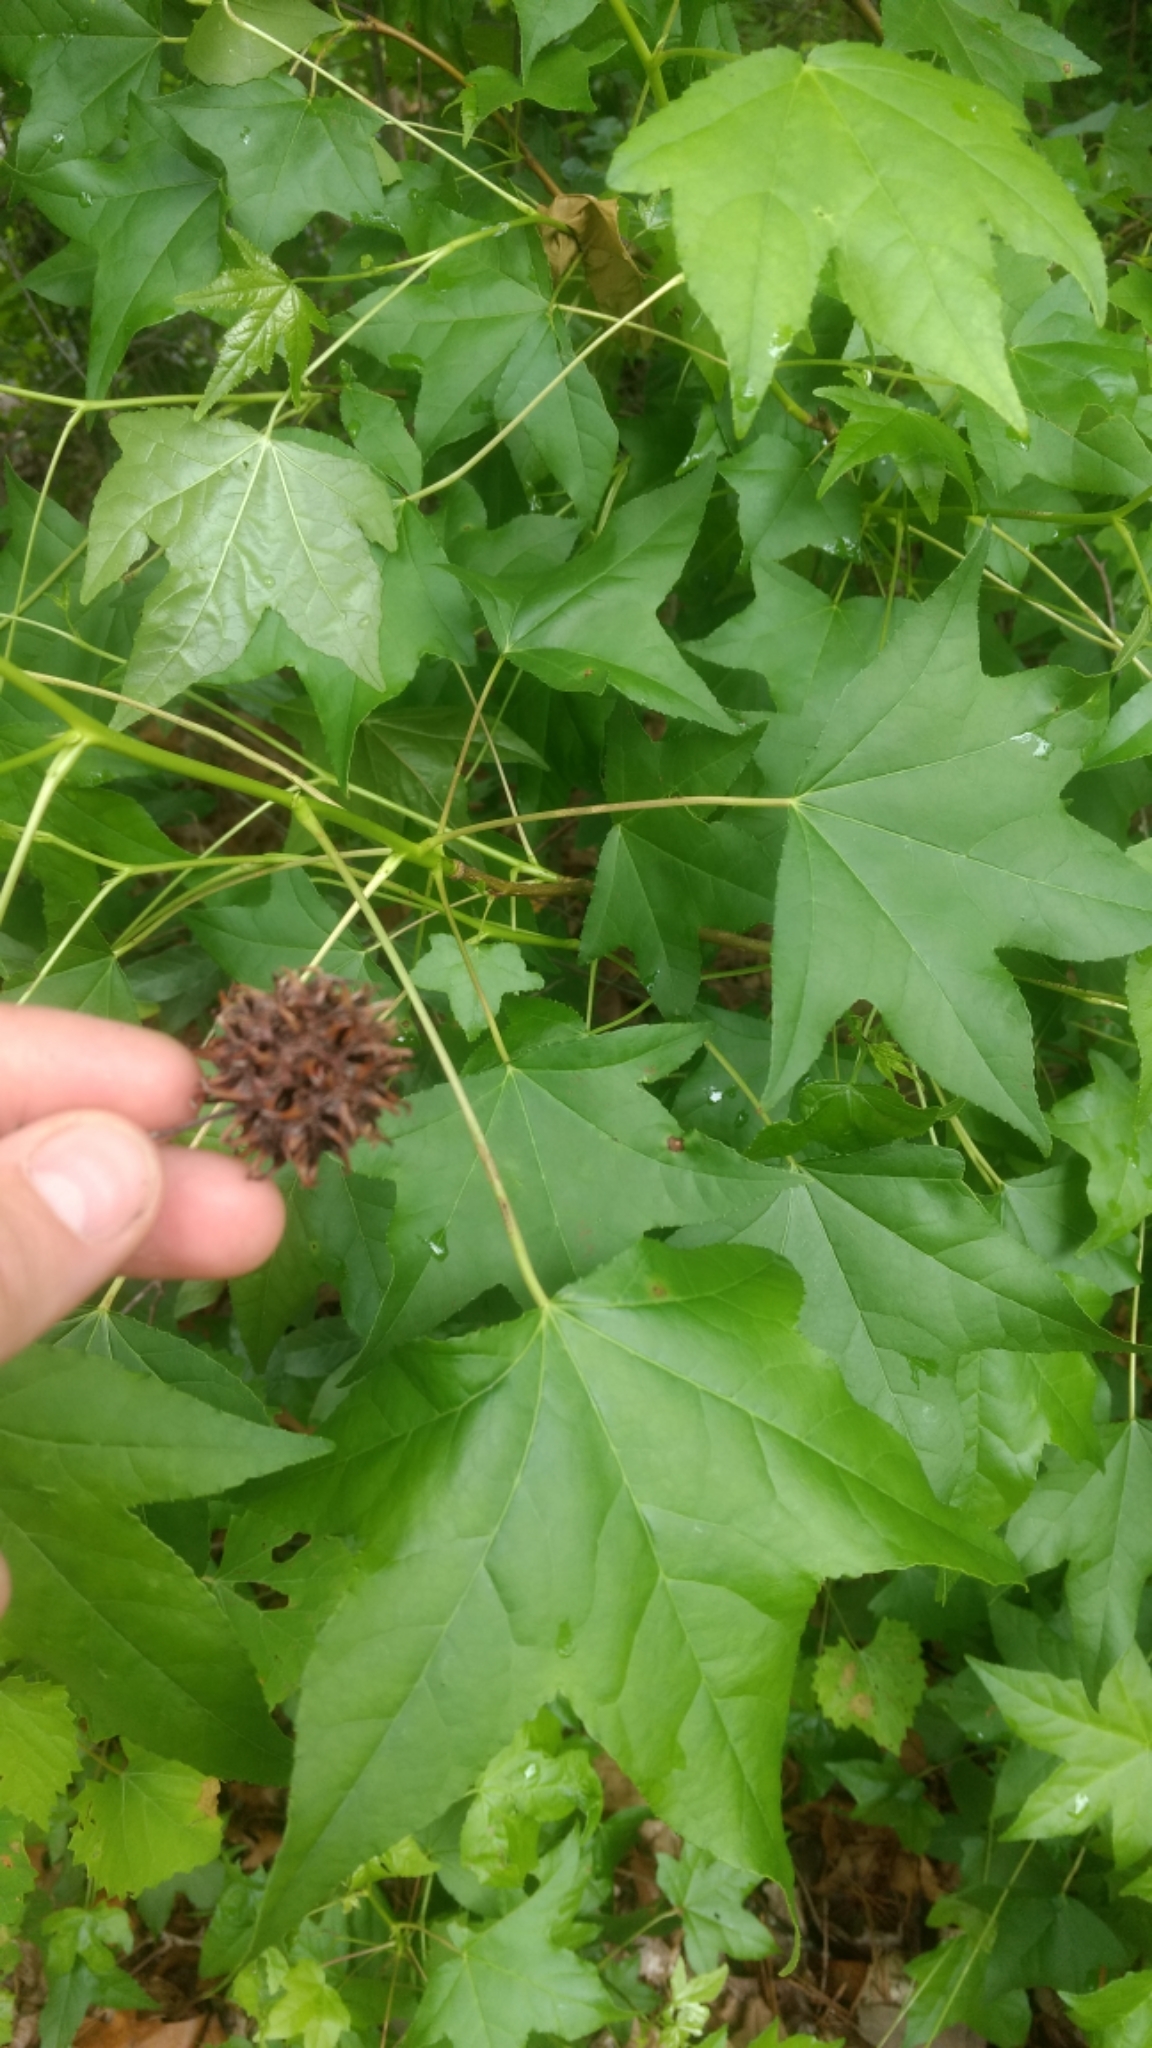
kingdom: Plantae
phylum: Tracheophyta
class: Magnoliopsida
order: Saxifragales
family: Altingiaceae
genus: Liquidambar
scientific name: Liquidambar styraciflua
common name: Sweet gum
